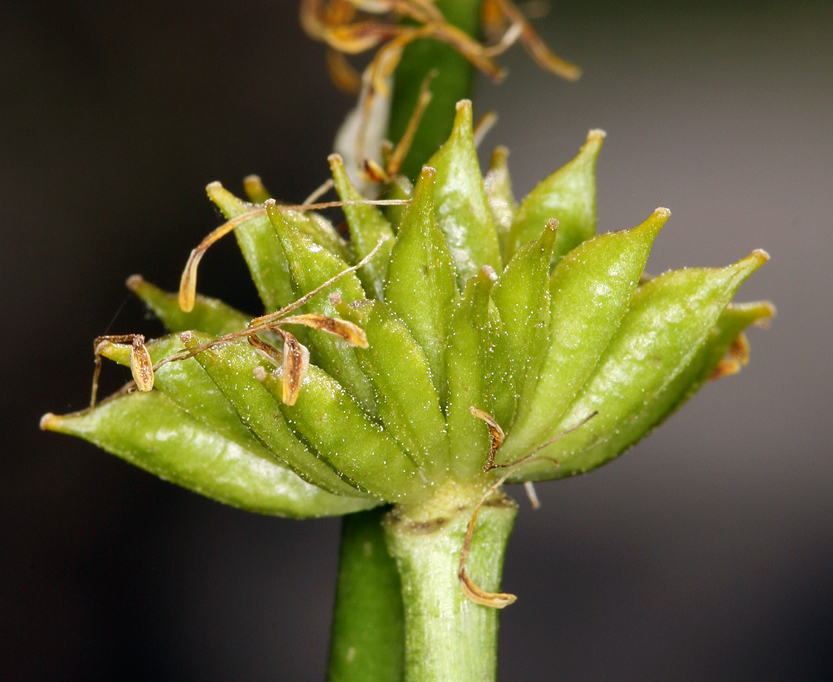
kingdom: Plantae
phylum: Tracheophyta
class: Magnoliopsida
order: Ranunculales
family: Ranunculaceae
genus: Caltha
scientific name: Caltha leptosepala
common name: Elkslip
